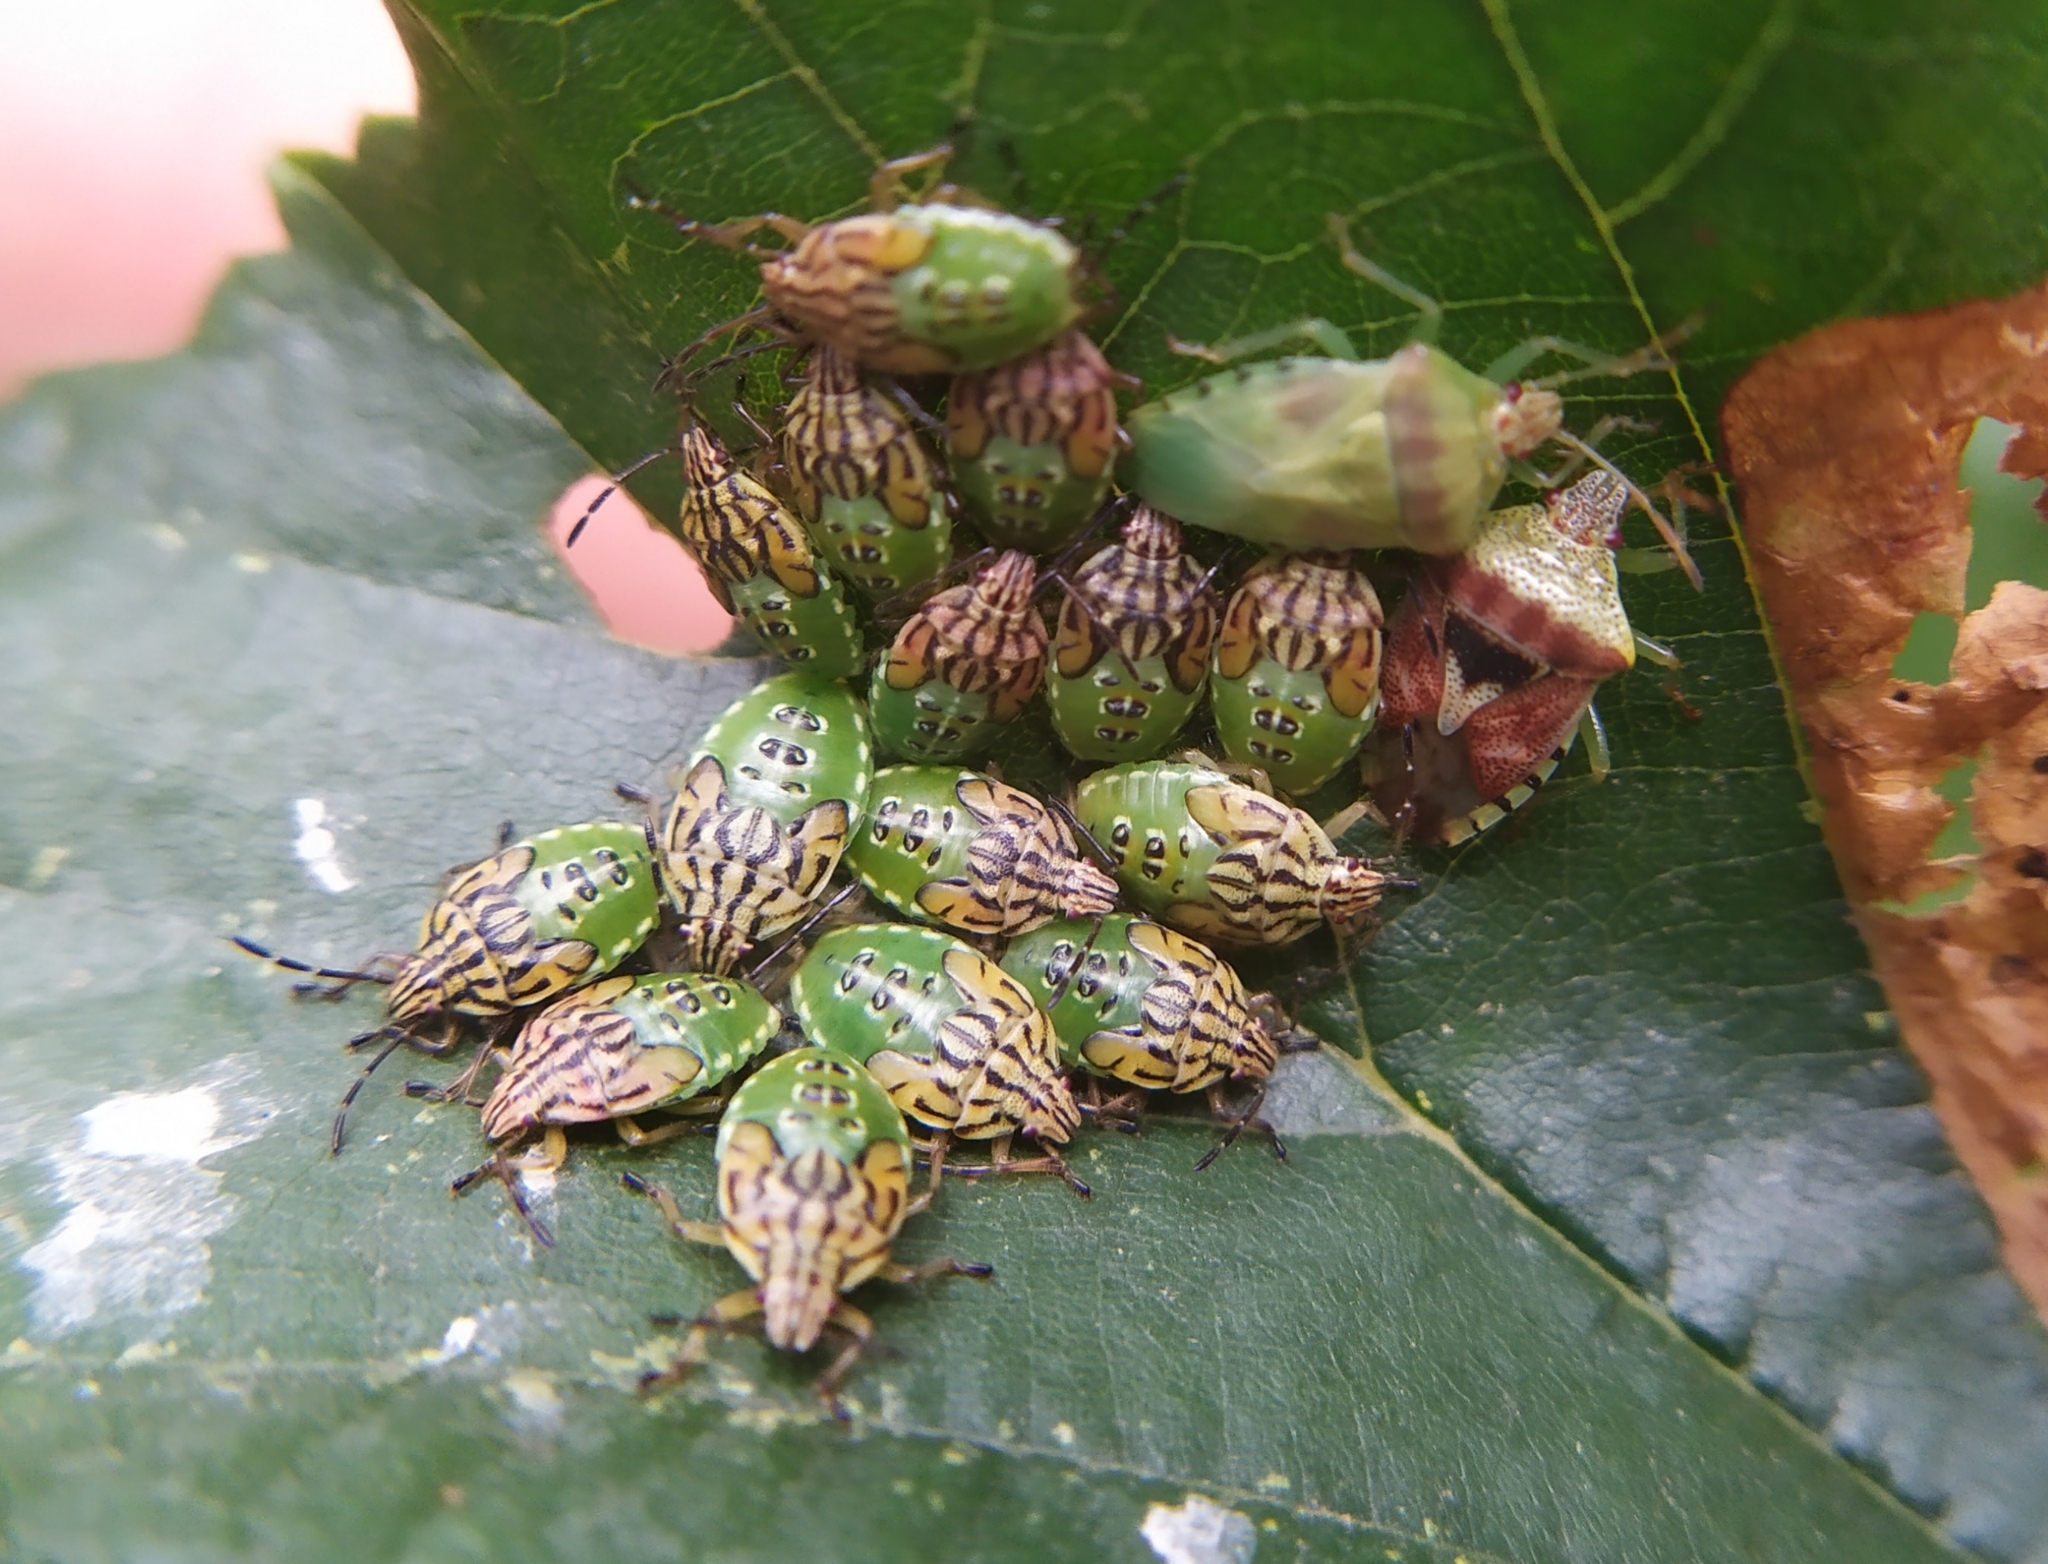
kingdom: Animalia
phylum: Arthropoda
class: Insecta
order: Hemiptera
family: Acanthosomatidae
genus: Elasmucha
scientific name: Elasmucha grisea
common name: Parent bug
